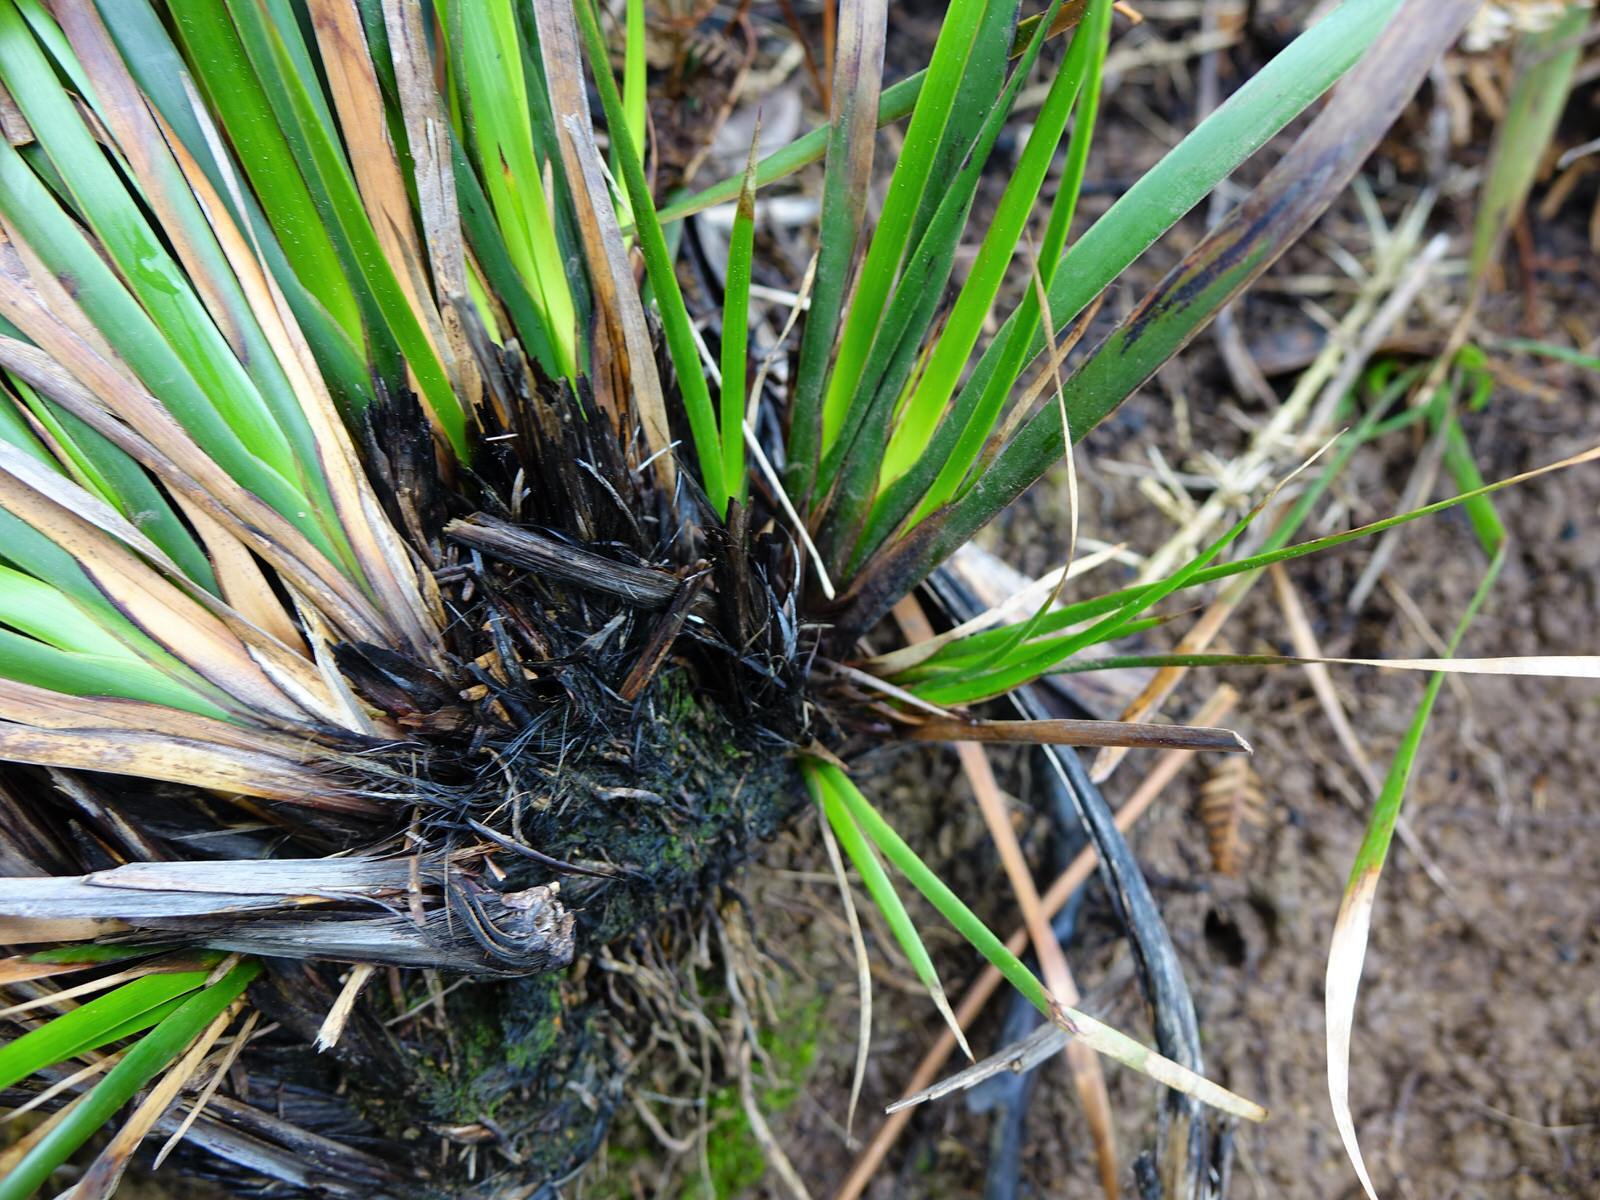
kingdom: Plantae
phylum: Tracheophyta
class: Liliopsida
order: Poales
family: Cyperaceae
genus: Lepidosperma
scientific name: Lepidosperma laterale
